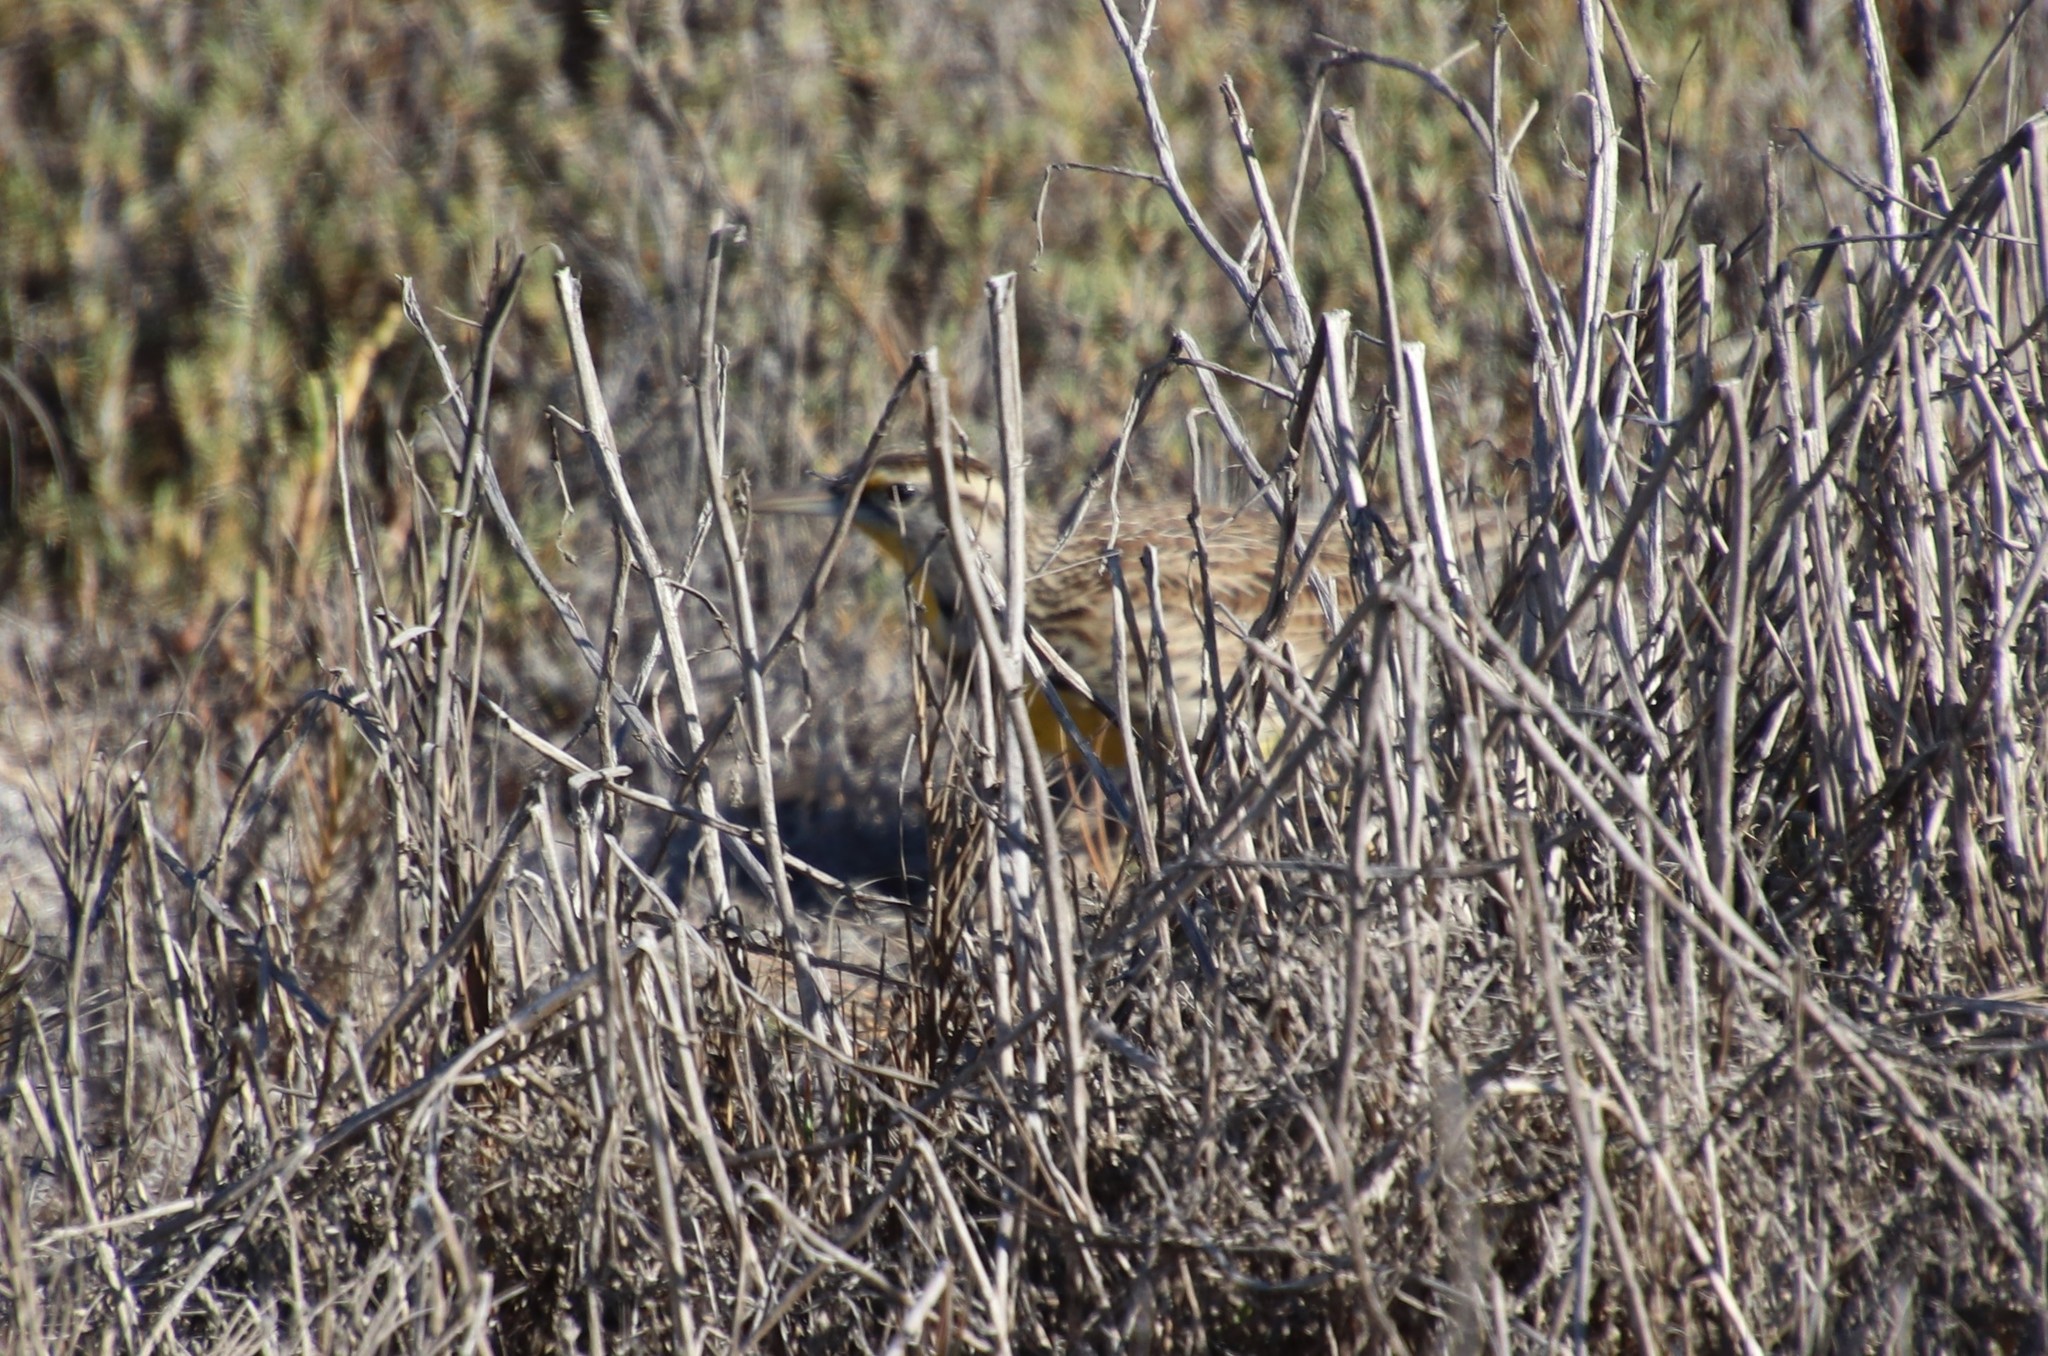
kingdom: Animalia
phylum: Chordata
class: Aves
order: Passeriformes
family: Icteridae
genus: Sturnella
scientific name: Sturnella neglecta
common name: Western meadowlark
